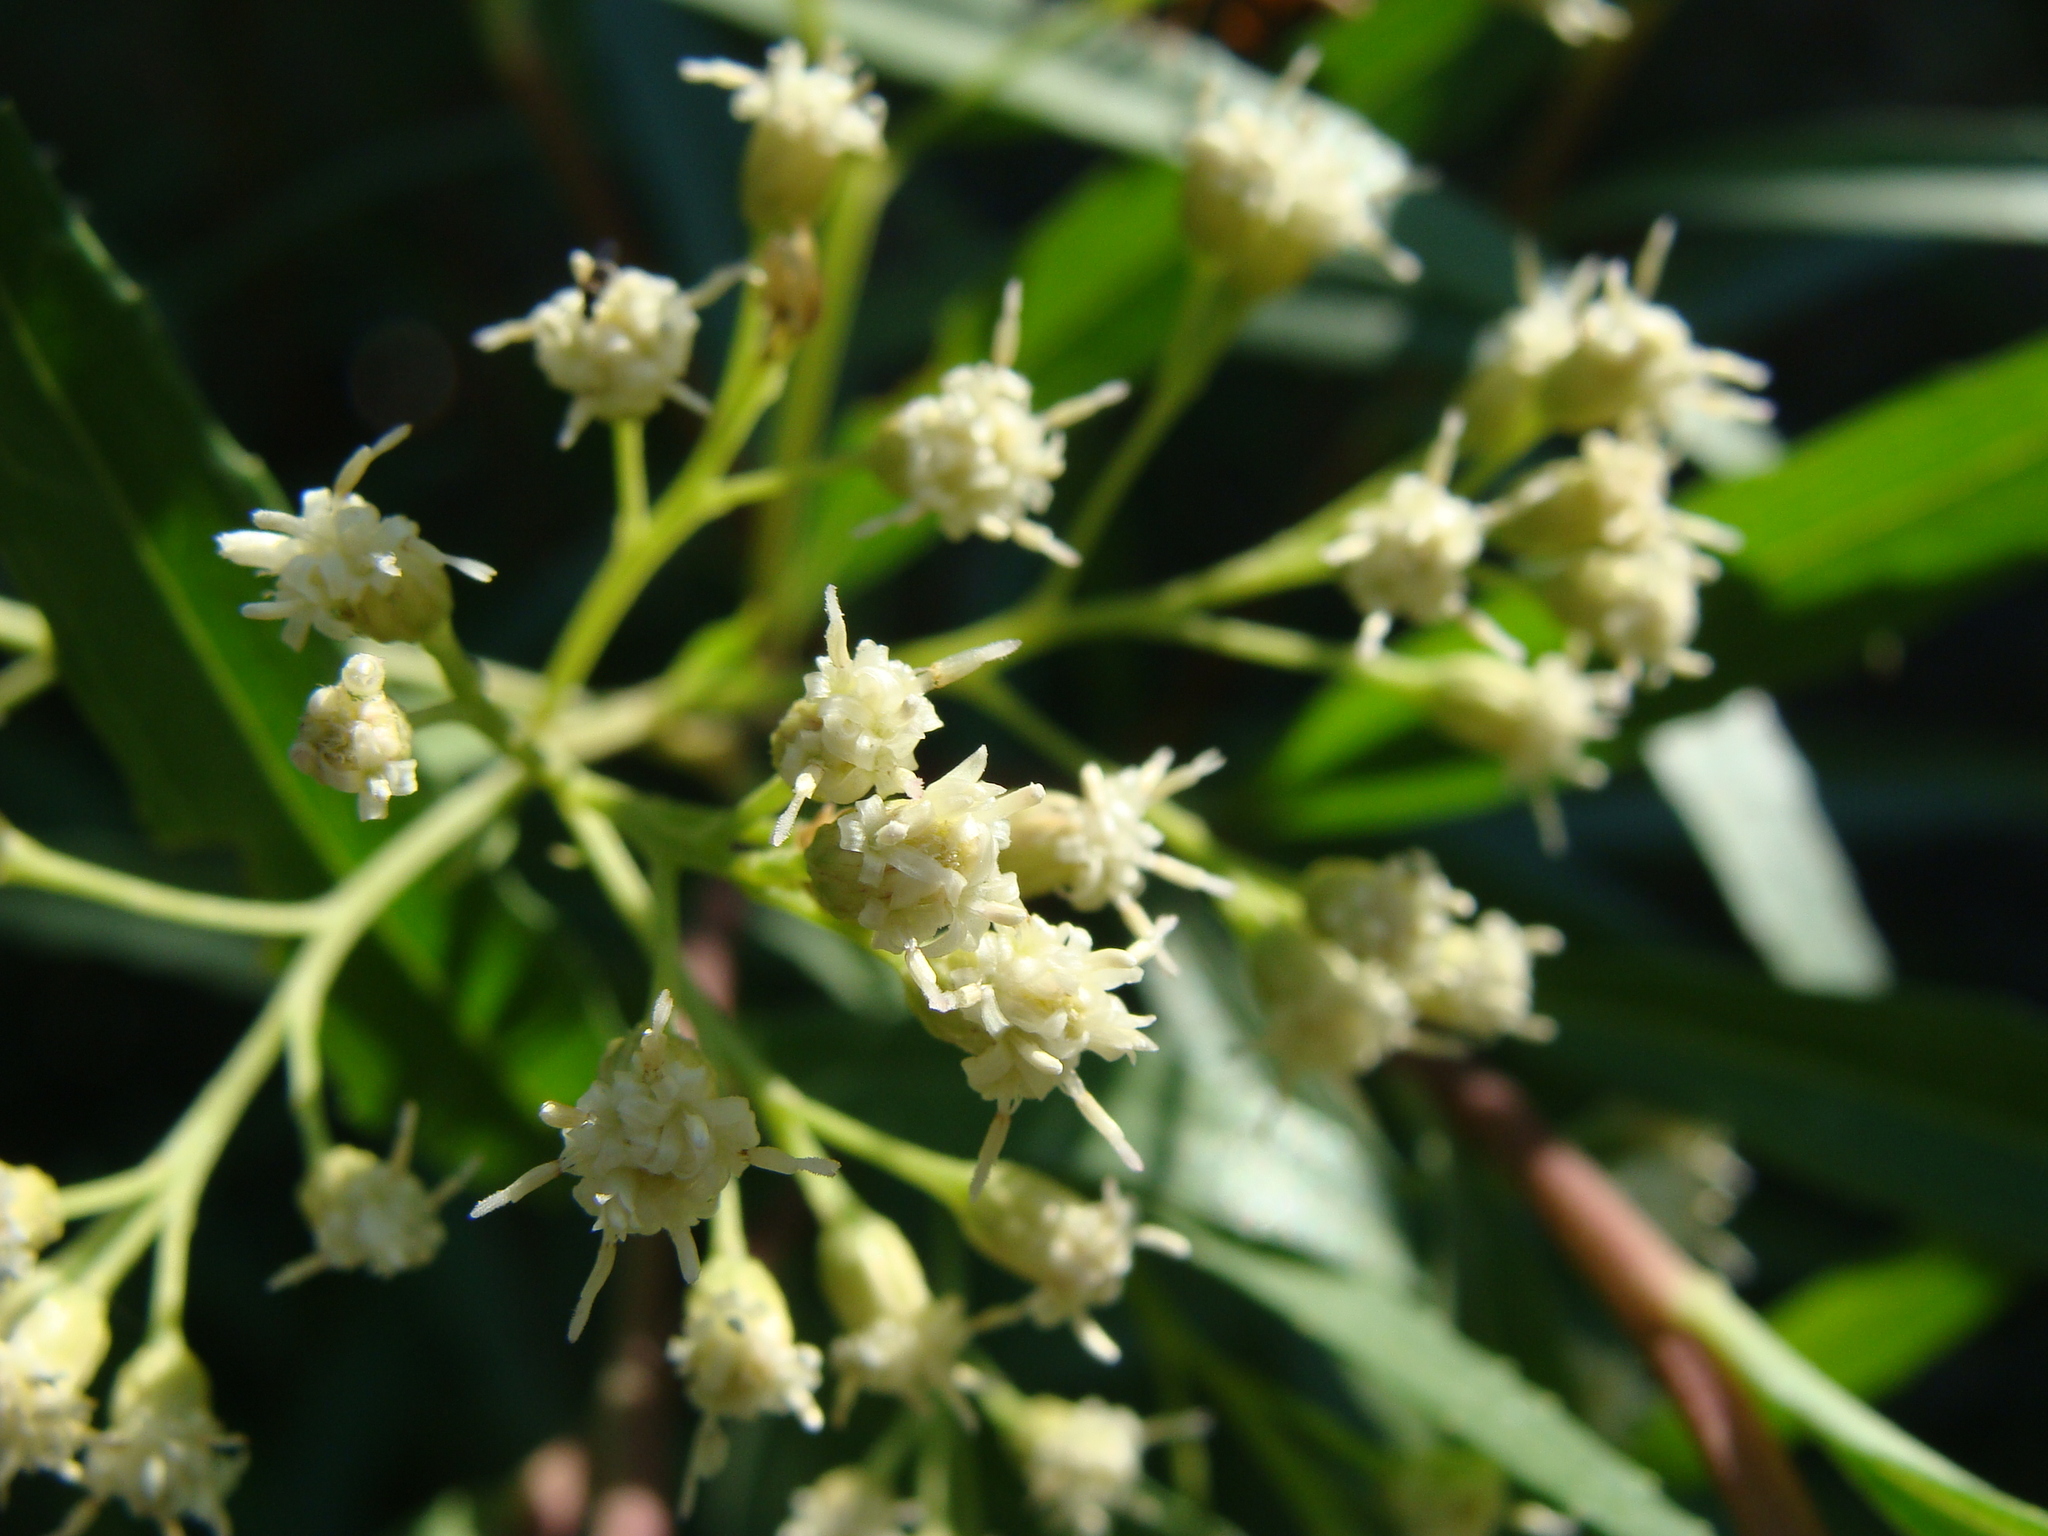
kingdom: Plantae
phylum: Tracheophyta
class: Magnoliopsida
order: Asterales
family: Asteraceae
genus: Baccharis
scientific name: Baccharis salicifolia
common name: Sticky baccharis
